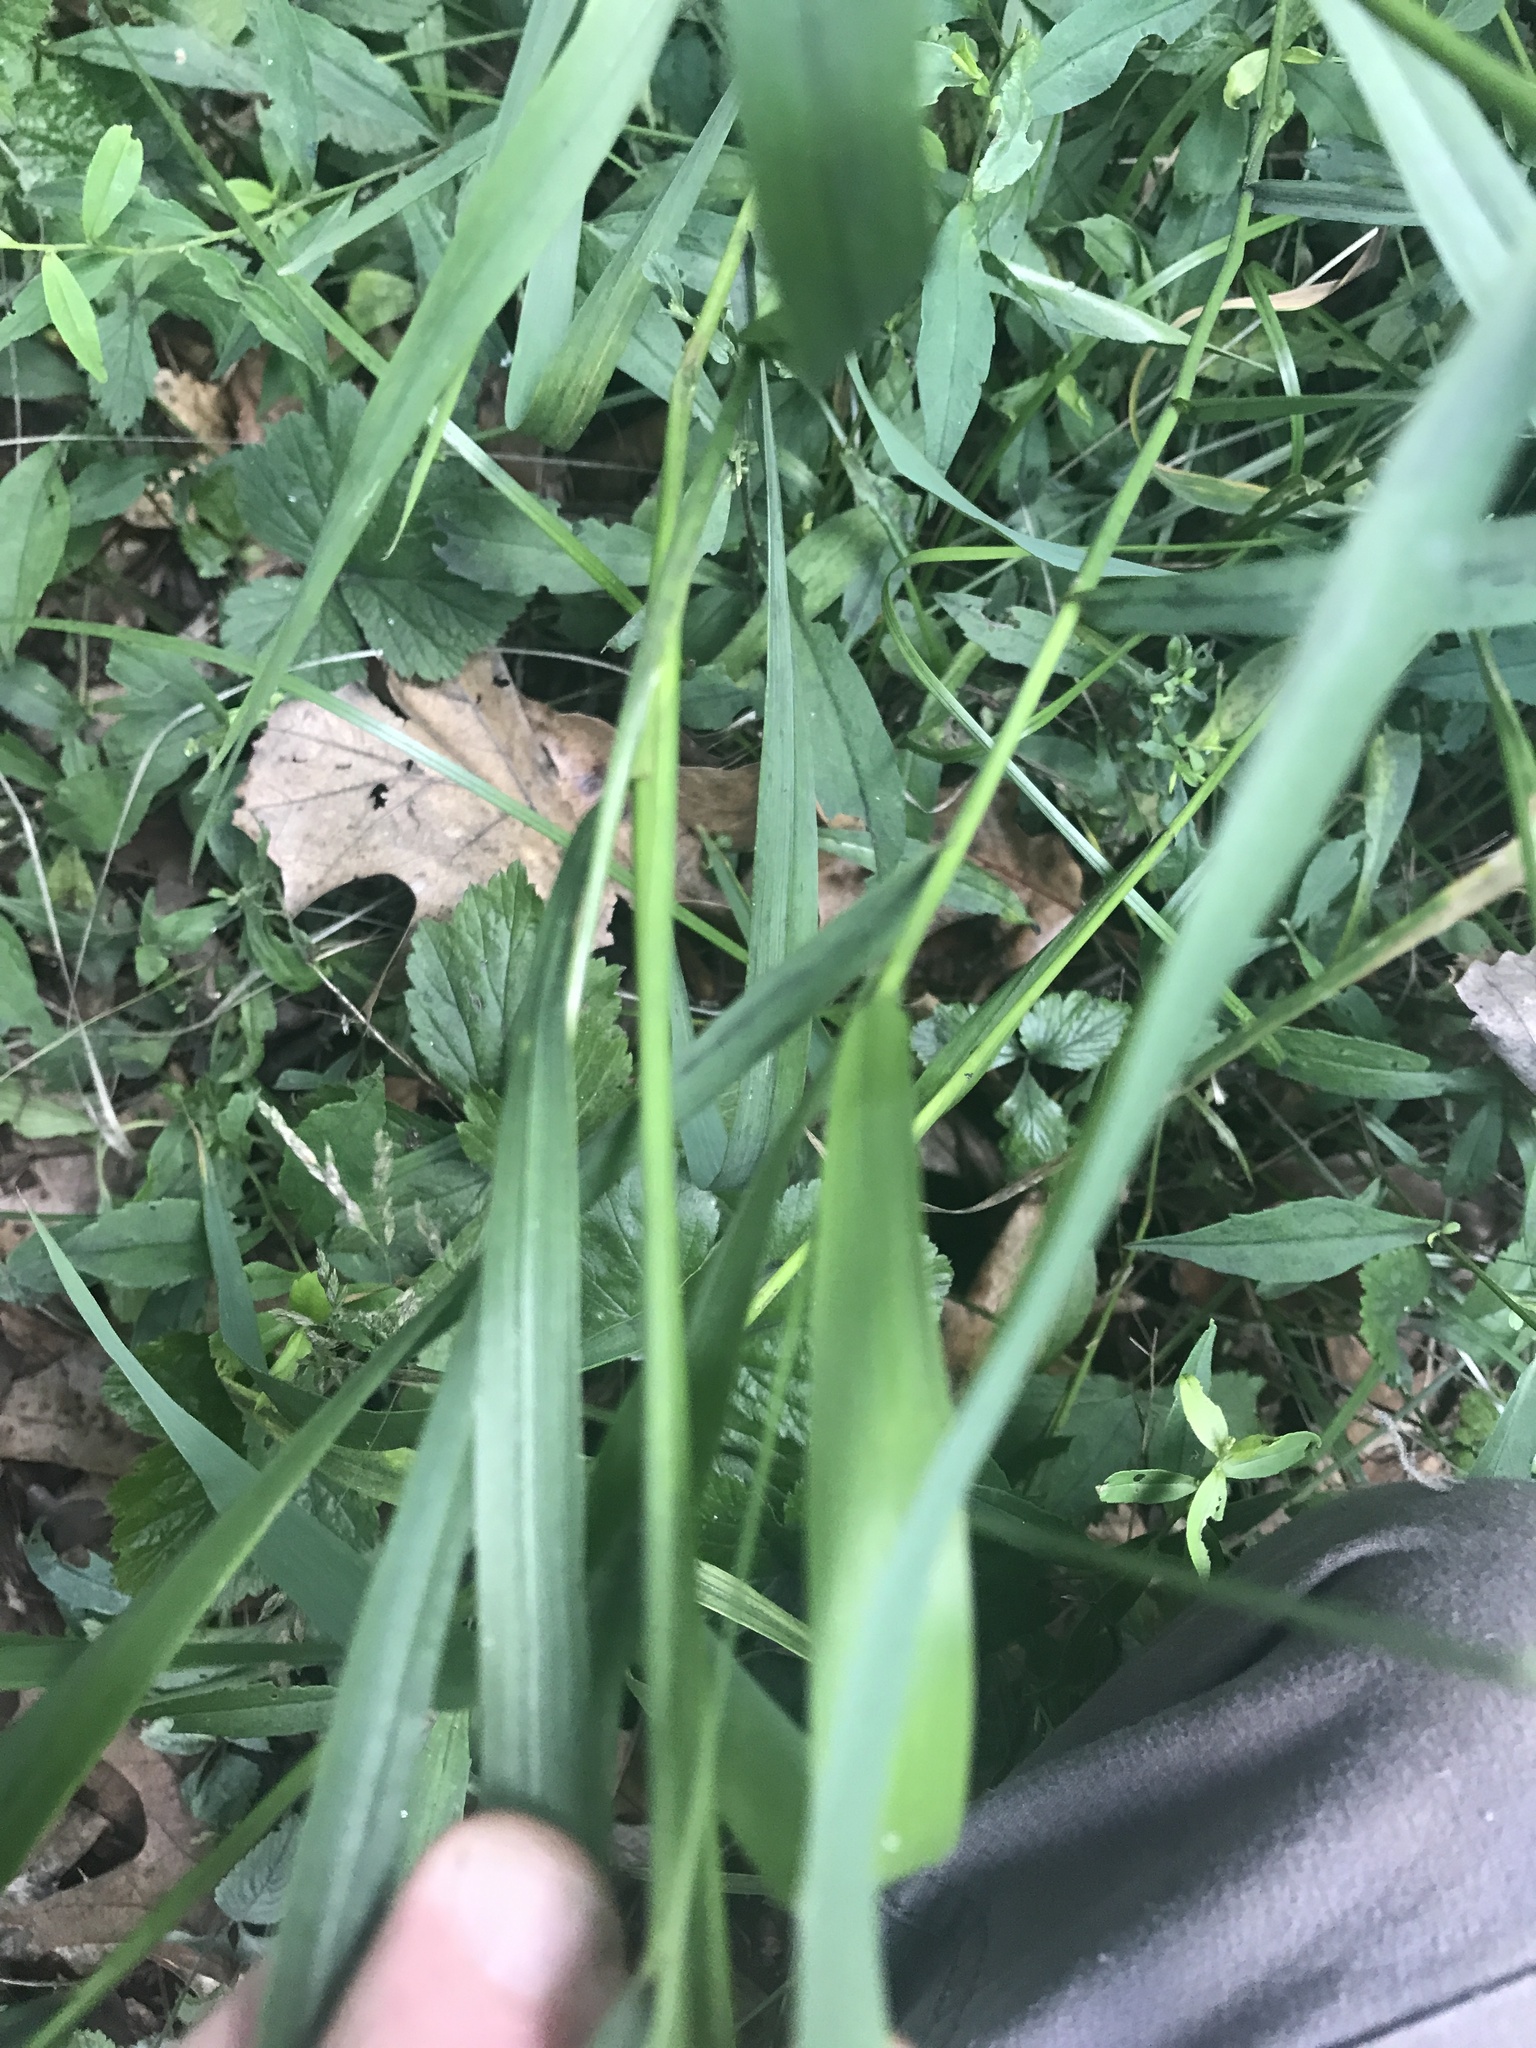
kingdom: Plantae
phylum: Tracheophyta
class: Liliopsida
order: Poales
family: Poaceae
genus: Elymus
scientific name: Elymus hystrix
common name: Bottlebrush grass
